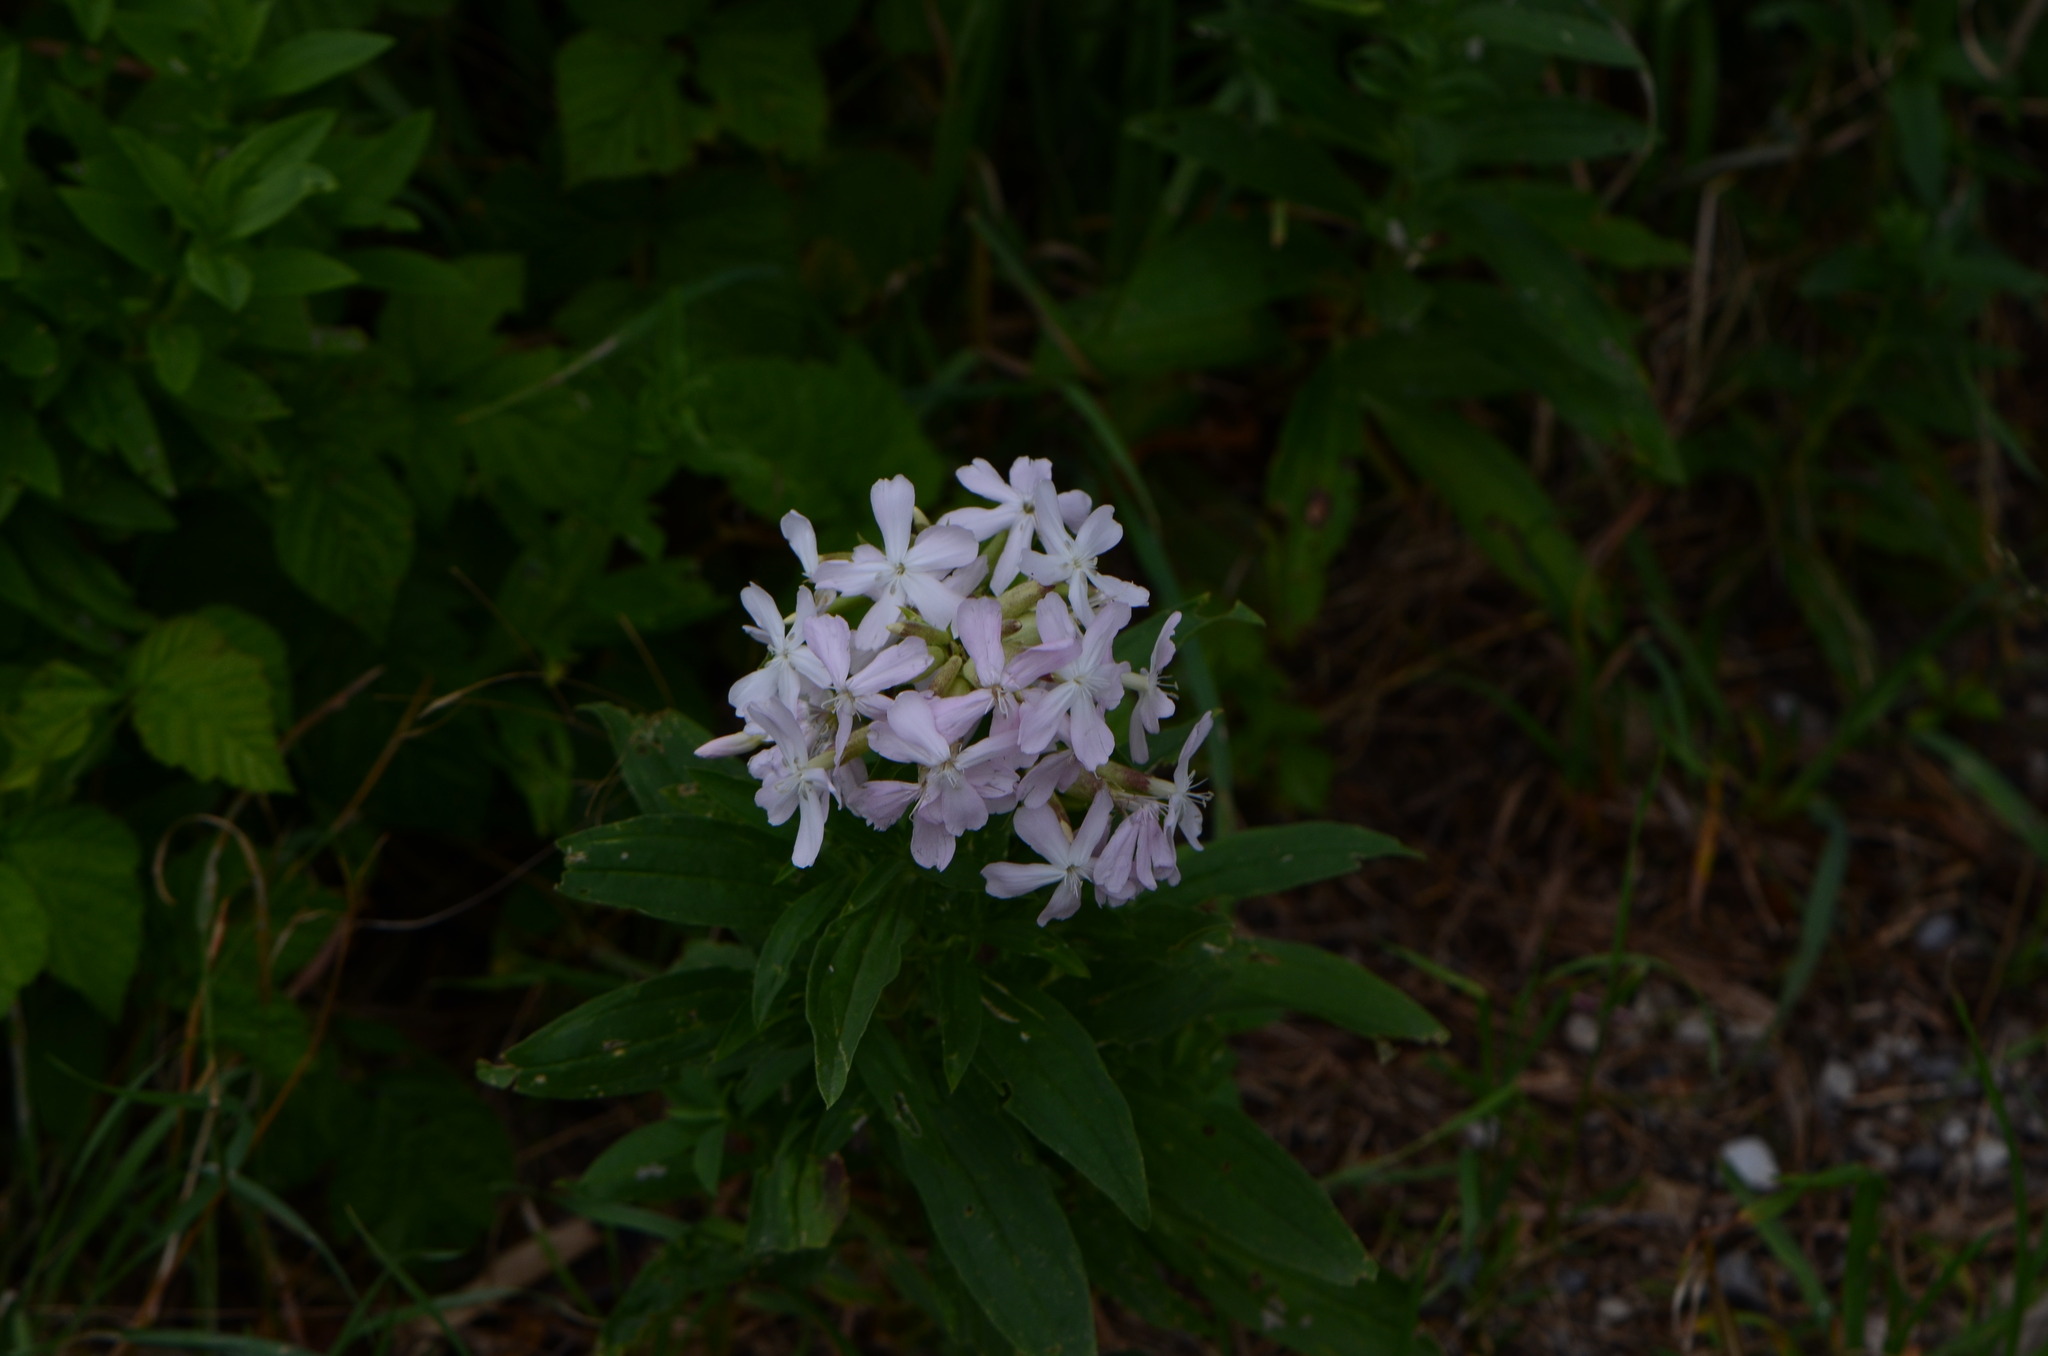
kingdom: Plantae
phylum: Tracheophyta
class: Magnoliopsida
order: Caryophyllales
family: Caryophyllaceae
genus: Saponaria
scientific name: Saponaria officinalis
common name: Soapwort
